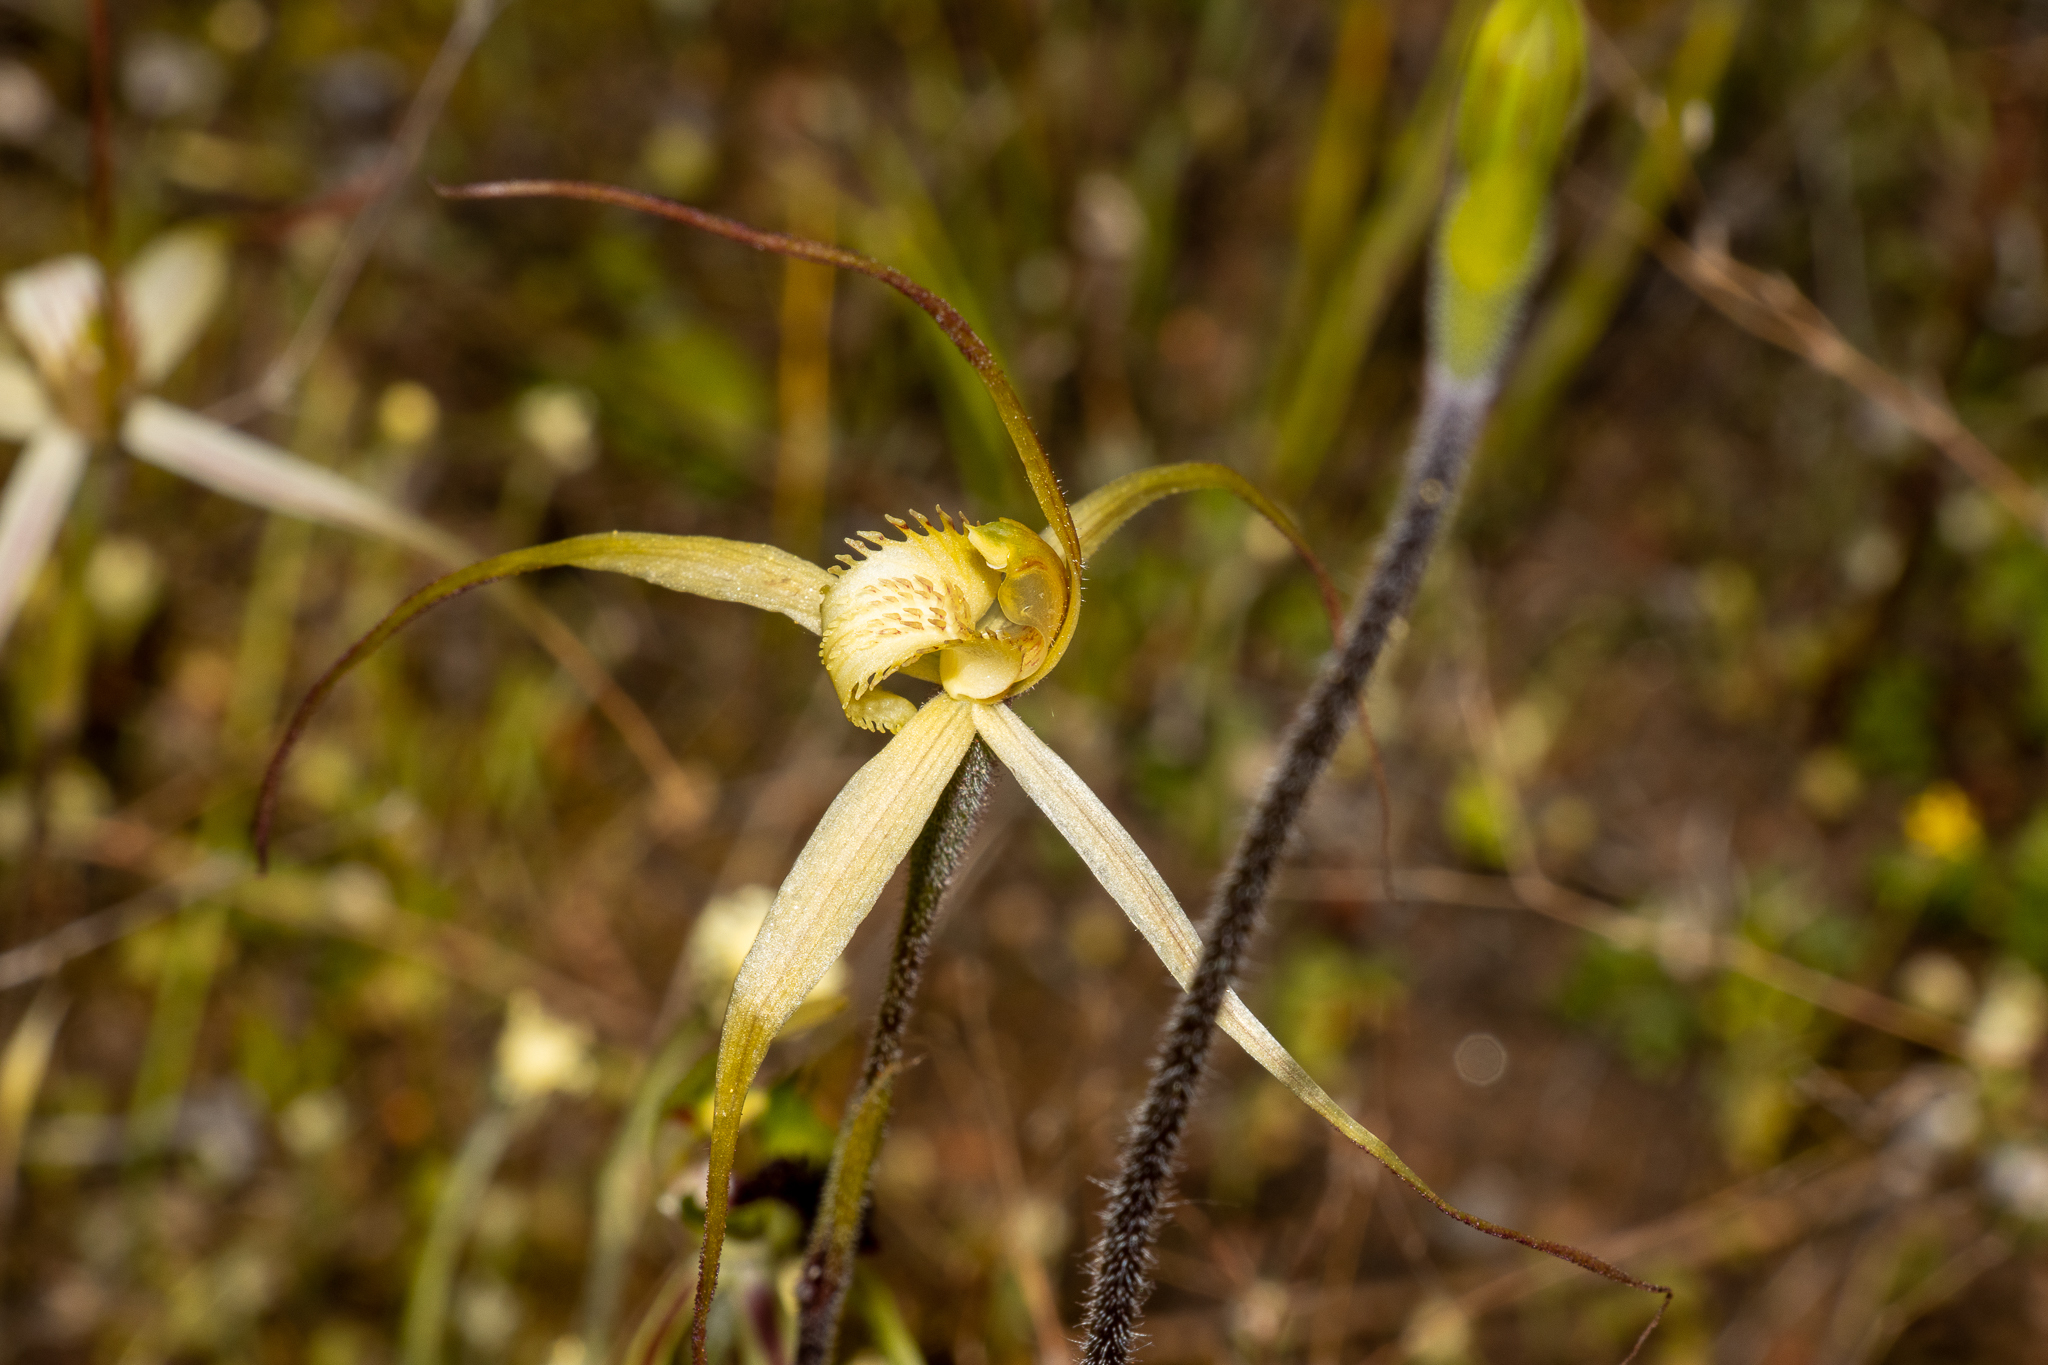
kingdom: Plantae
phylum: Tracheophyta
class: Liliopsida
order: Asparagales
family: Orchidaceae
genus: Caladenia
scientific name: Caladenia zephyra
